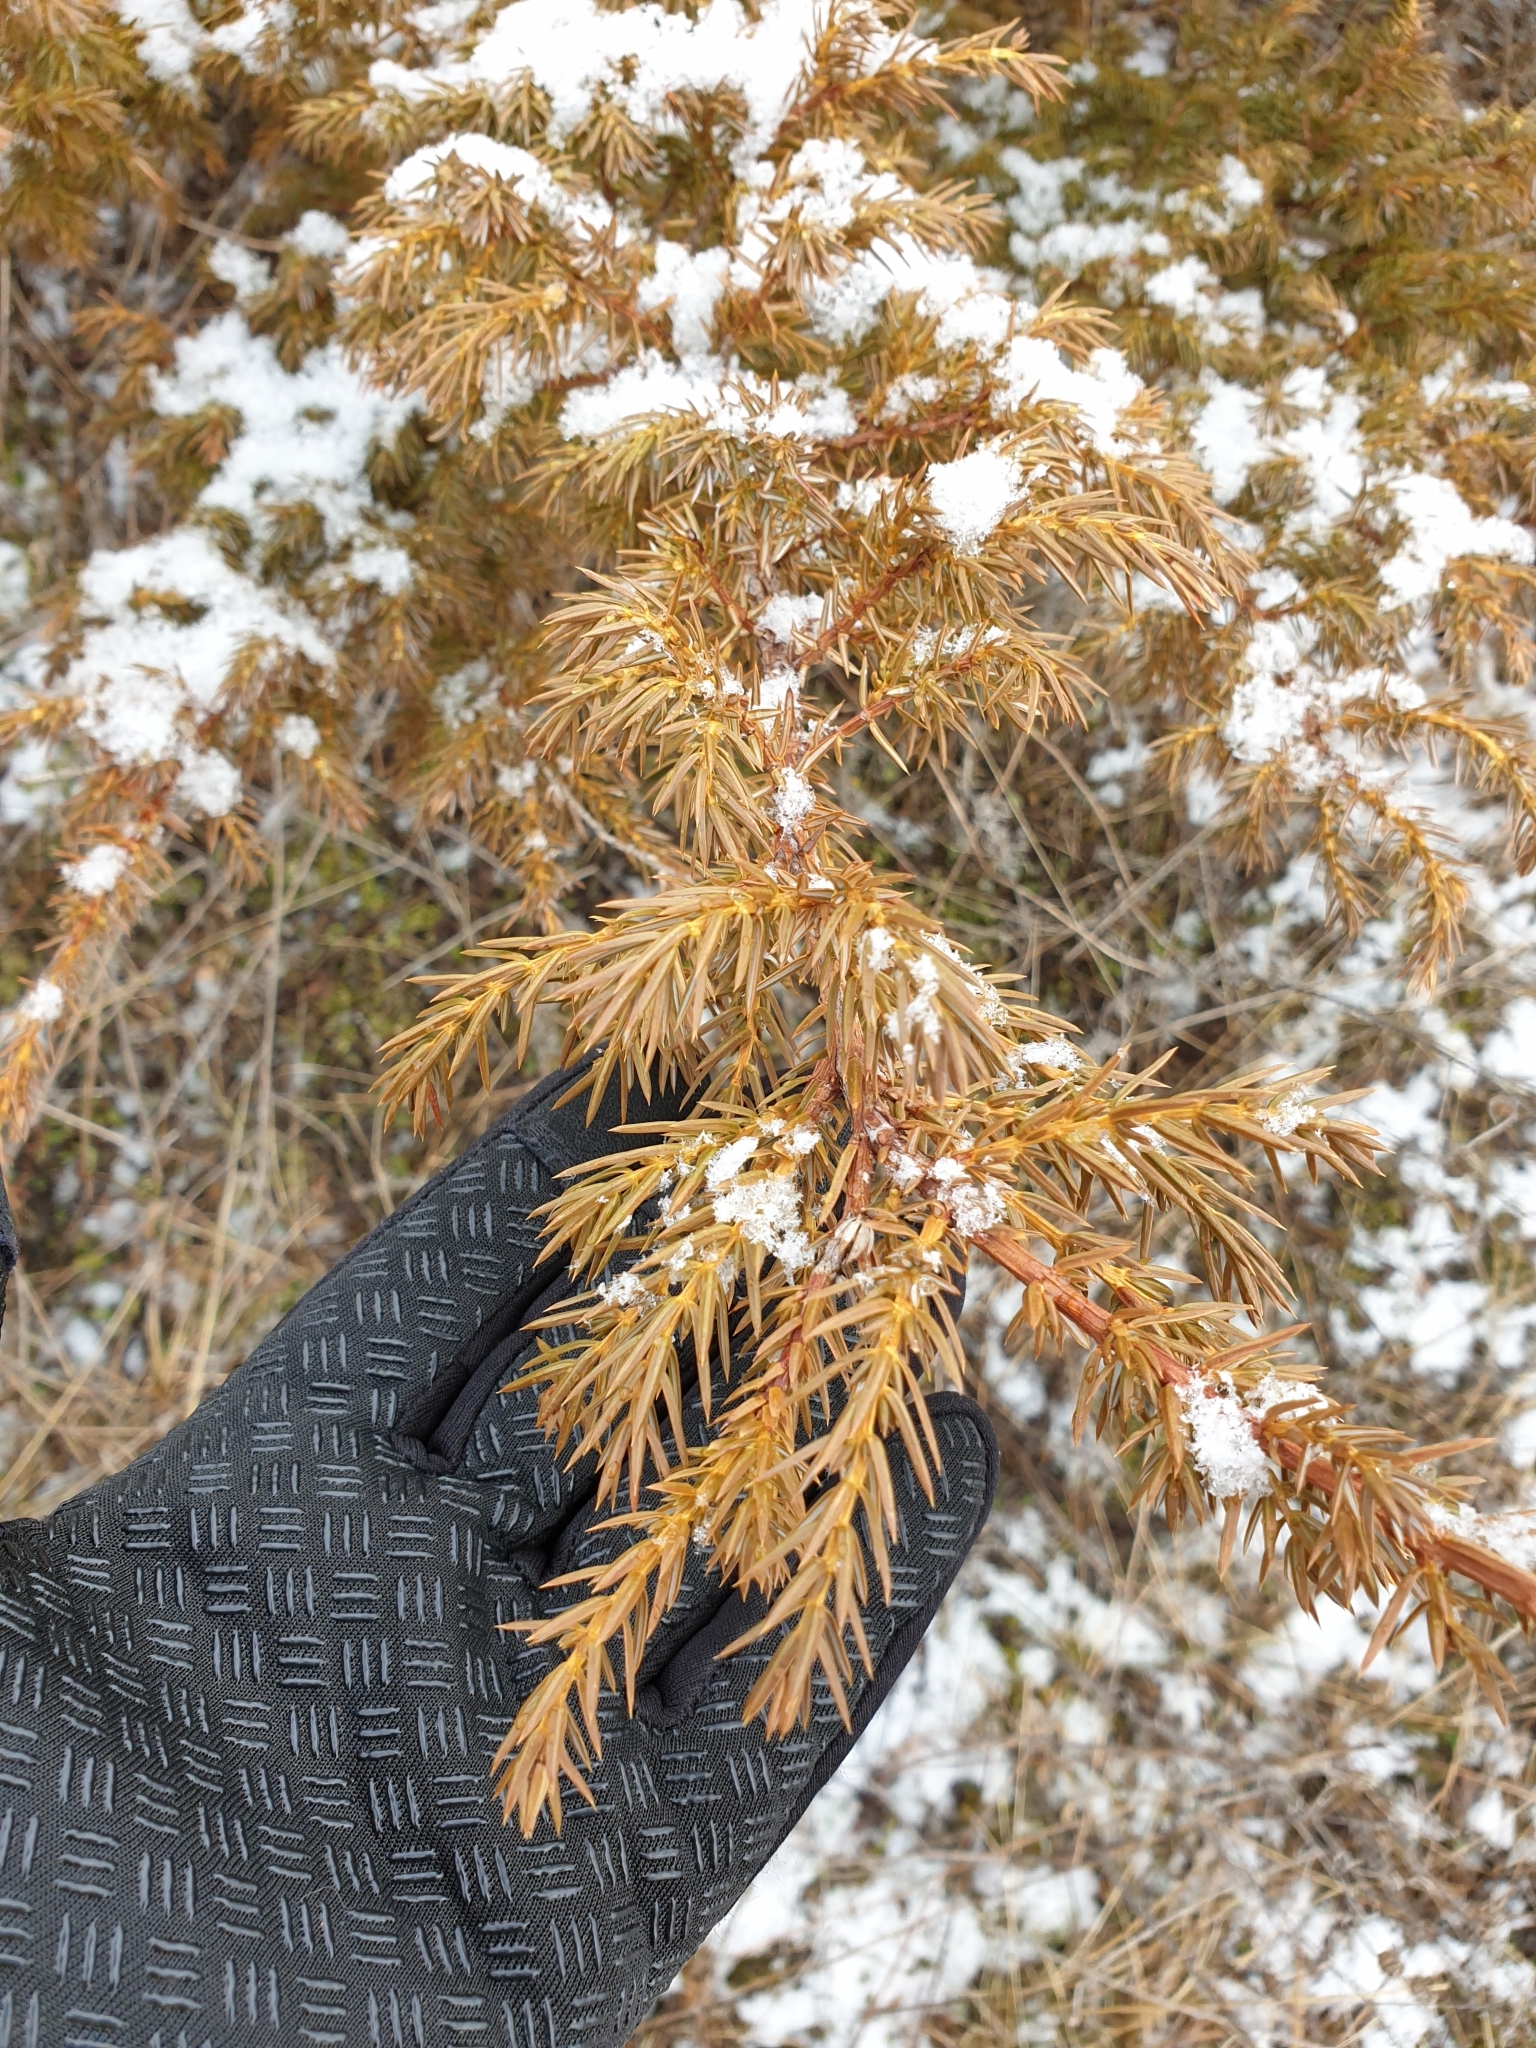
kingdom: Plantae
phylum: Tracheophyta
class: Pinopsida
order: Pinales
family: Cupressaceae
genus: Juniperus
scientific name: Juniperus communis
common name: Common juniper
